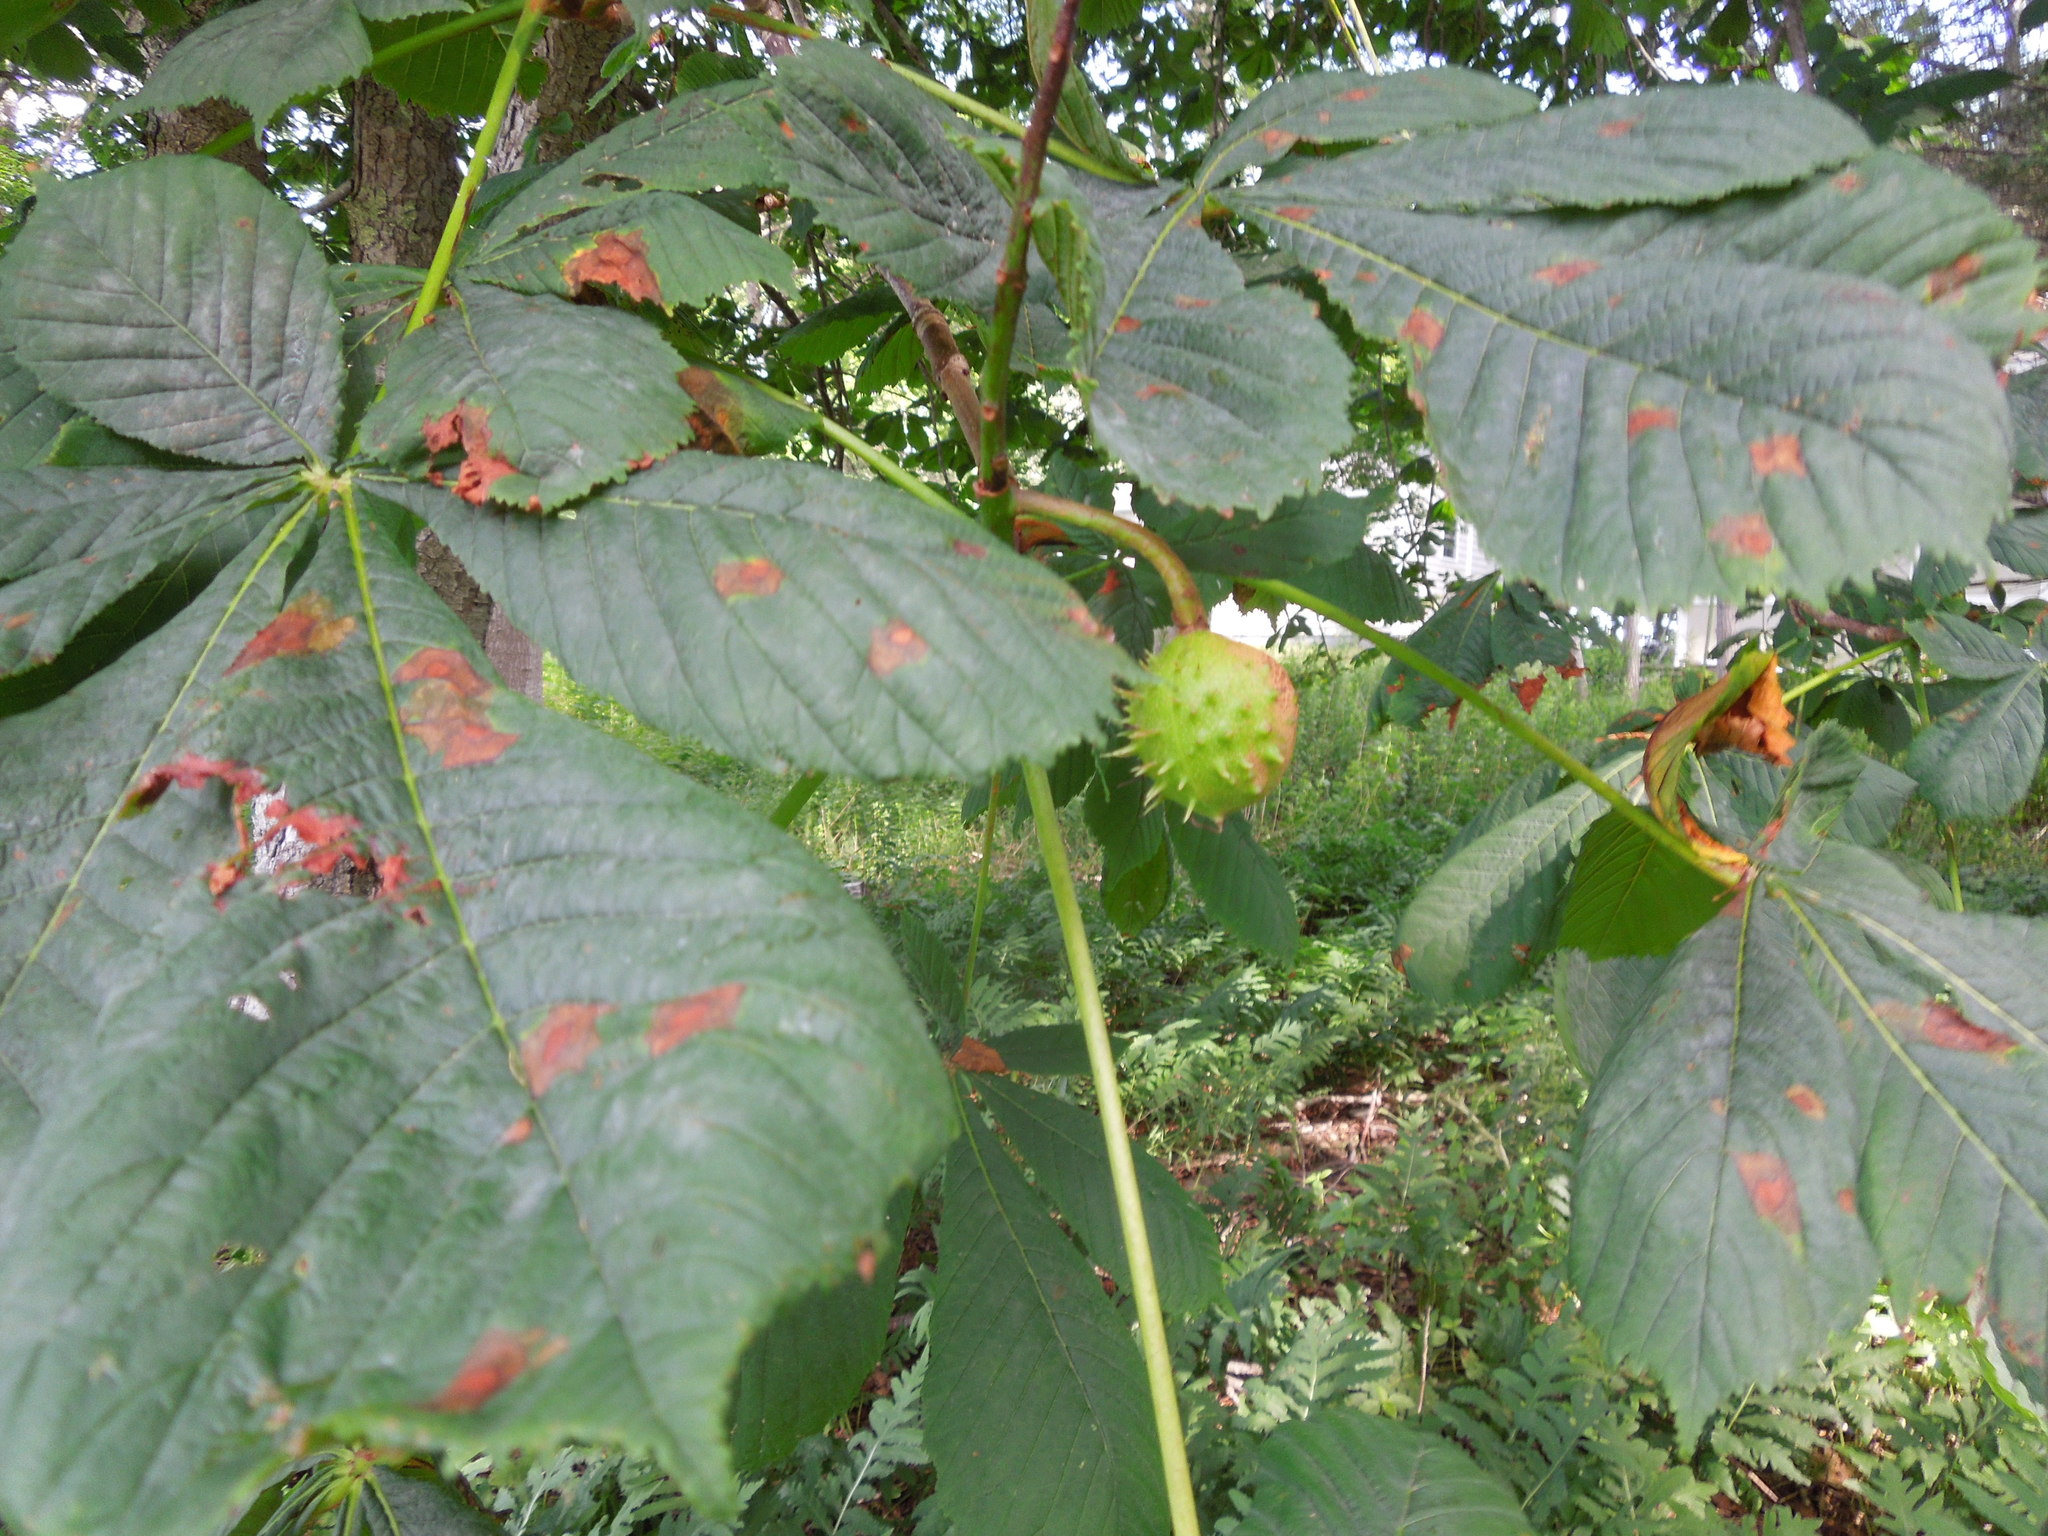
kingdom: Plantae
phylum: Tracheophyta
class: Magnoliopsida
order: Sapindales
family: Sapindaceae
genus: Aesculus
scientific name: Aesculus hippocastanum
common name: Horse-chestnut
